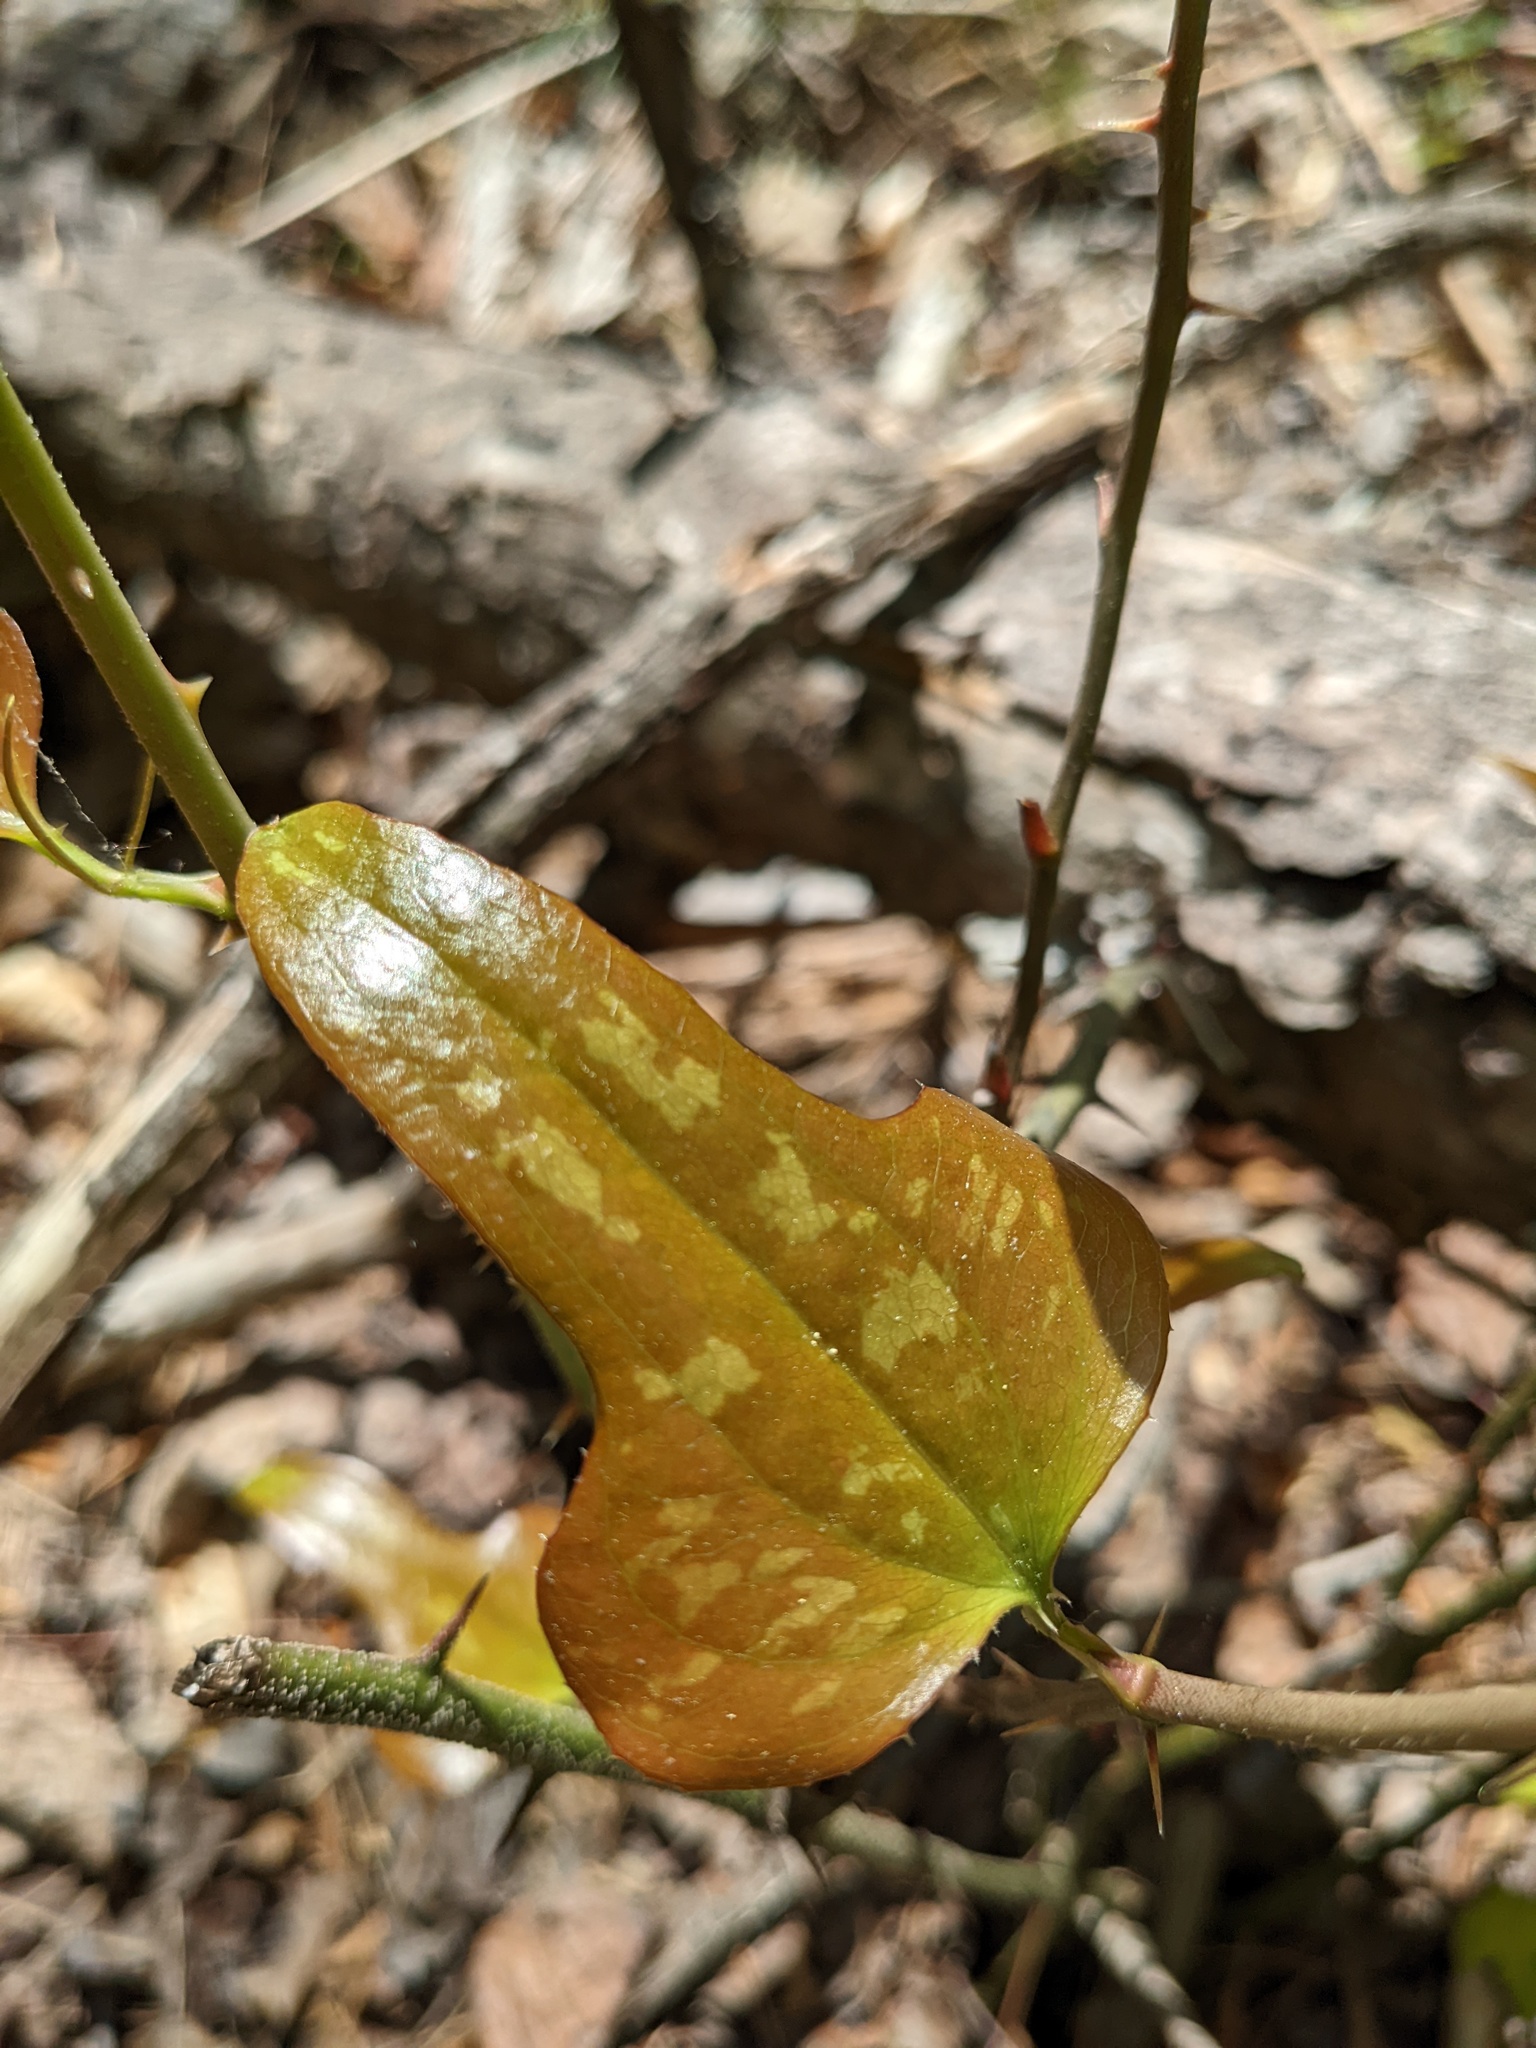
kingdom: Plantae
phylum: Tracheophyta
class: Liliopsida
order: Liliales
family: Smilacaceae
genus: Smilax
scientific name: Smilax bona-nox
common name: Catbrier
